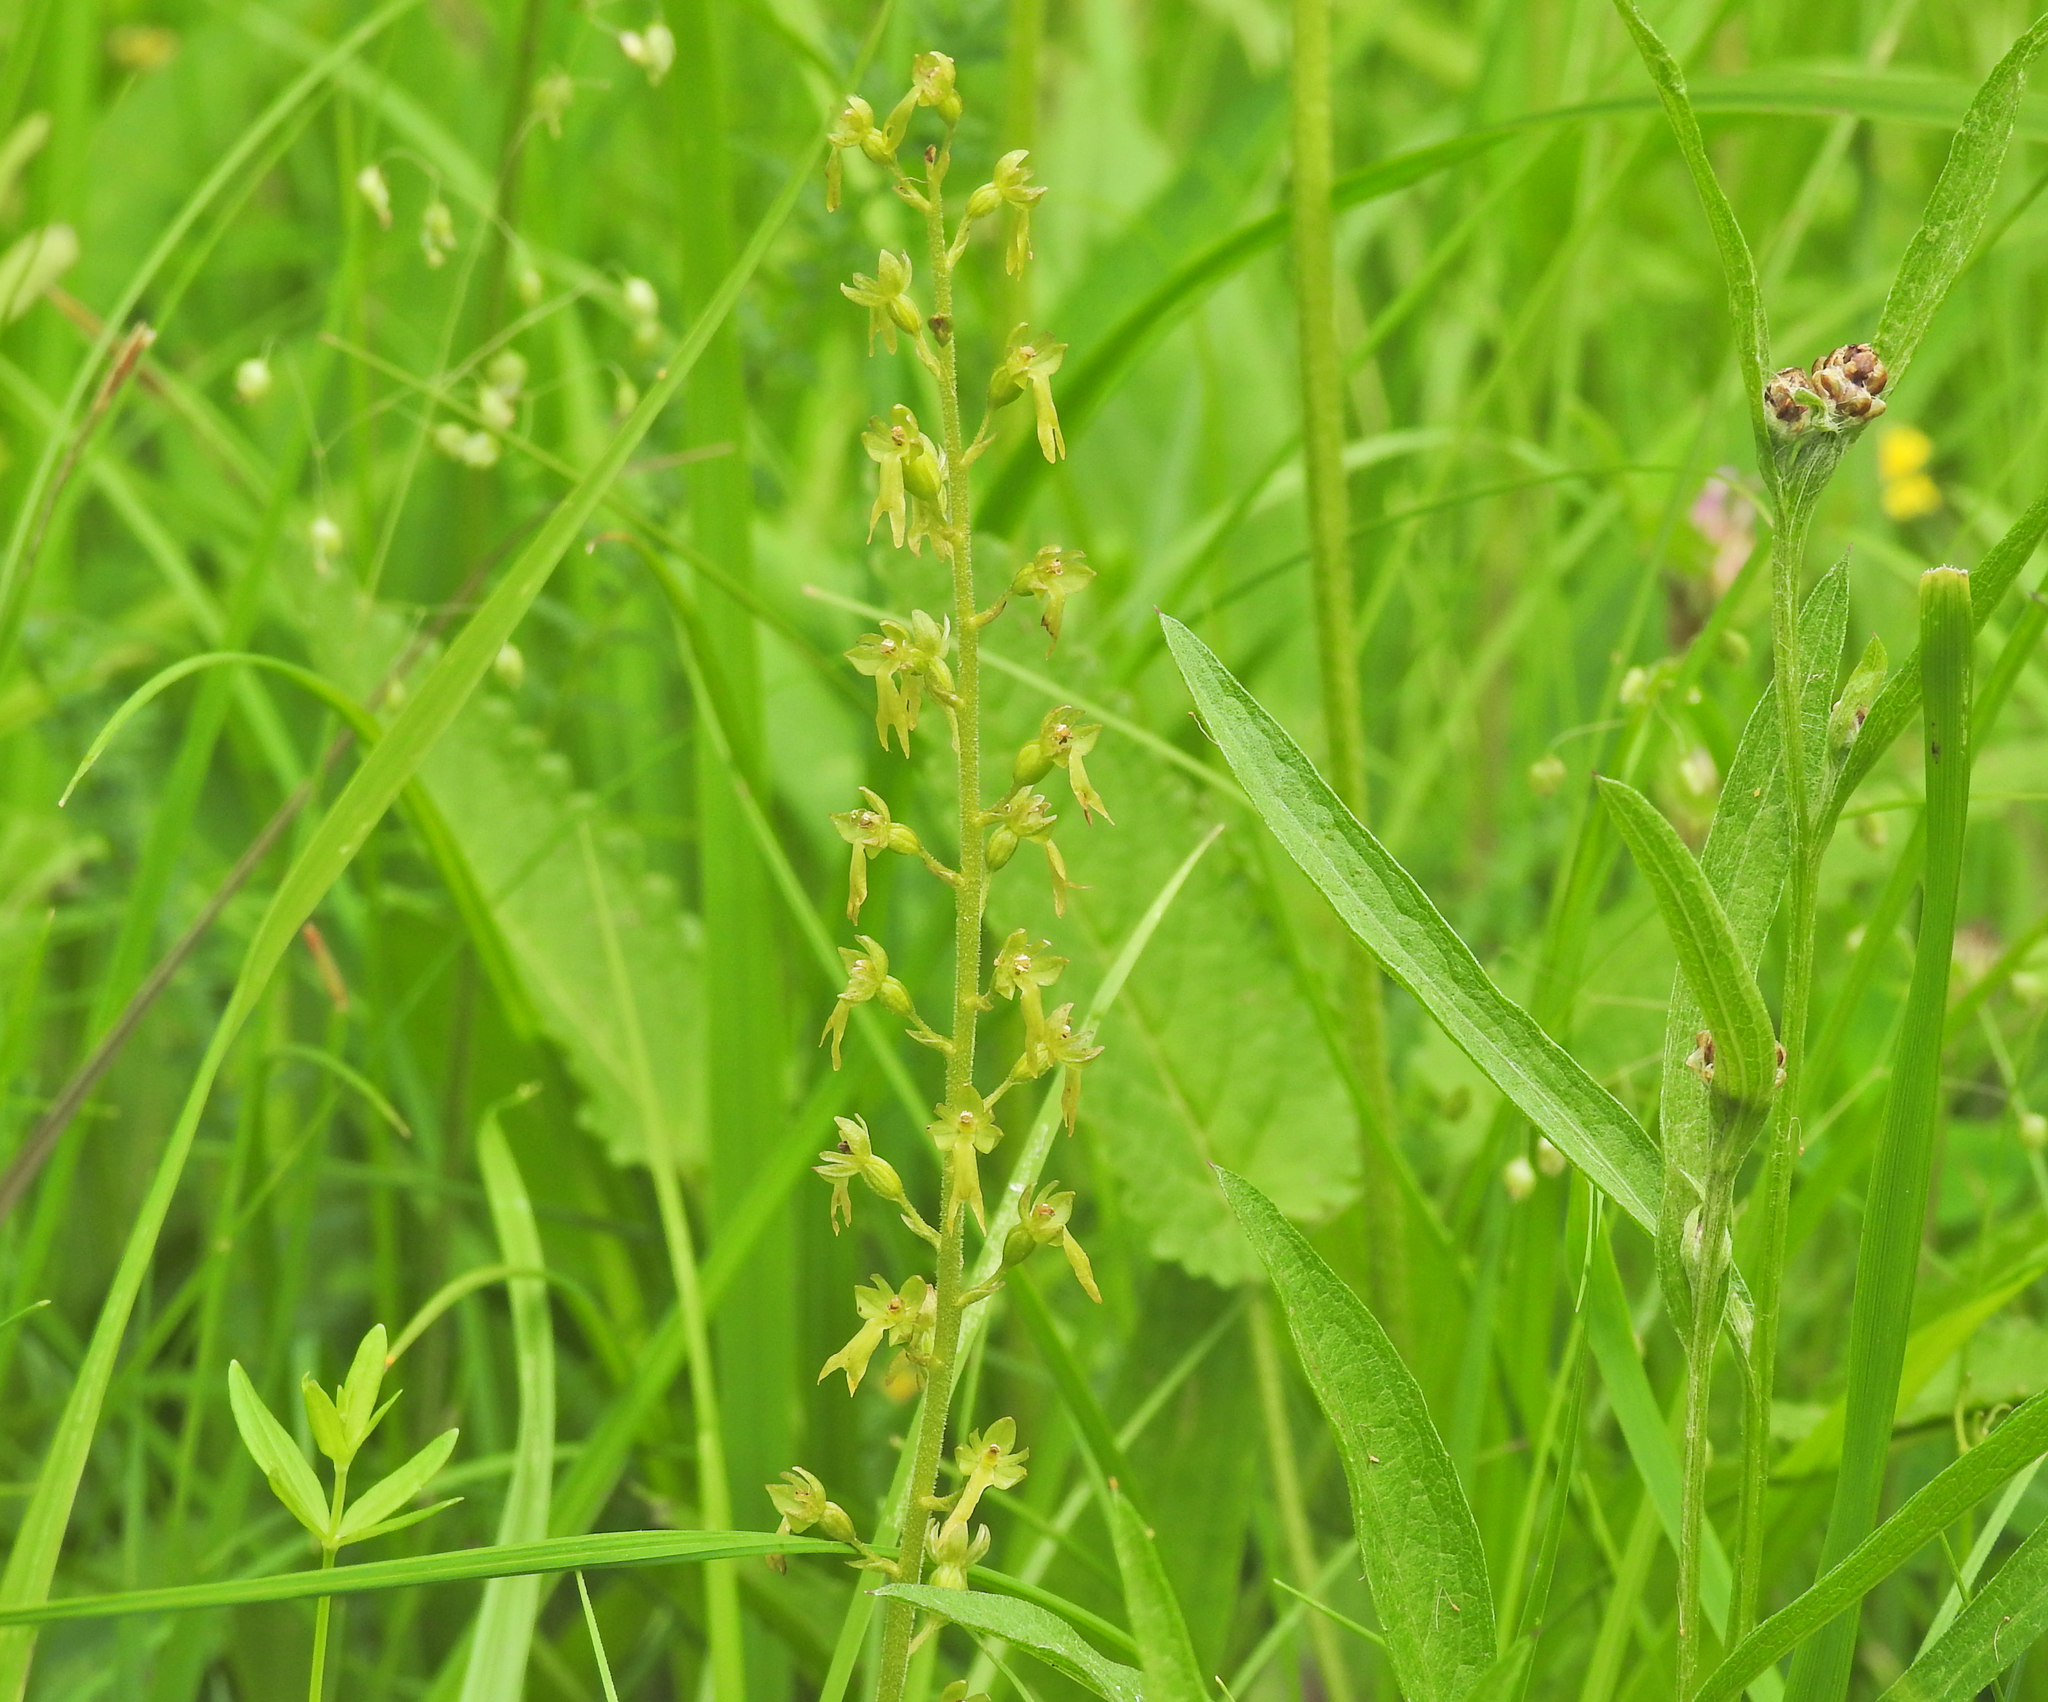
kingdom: Plantae
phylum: Tracheophyta
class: Liliopsida
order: Asparagales
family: Orchidaceae
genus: Neottia
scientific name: Neottia ovata
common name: Common twayblade
